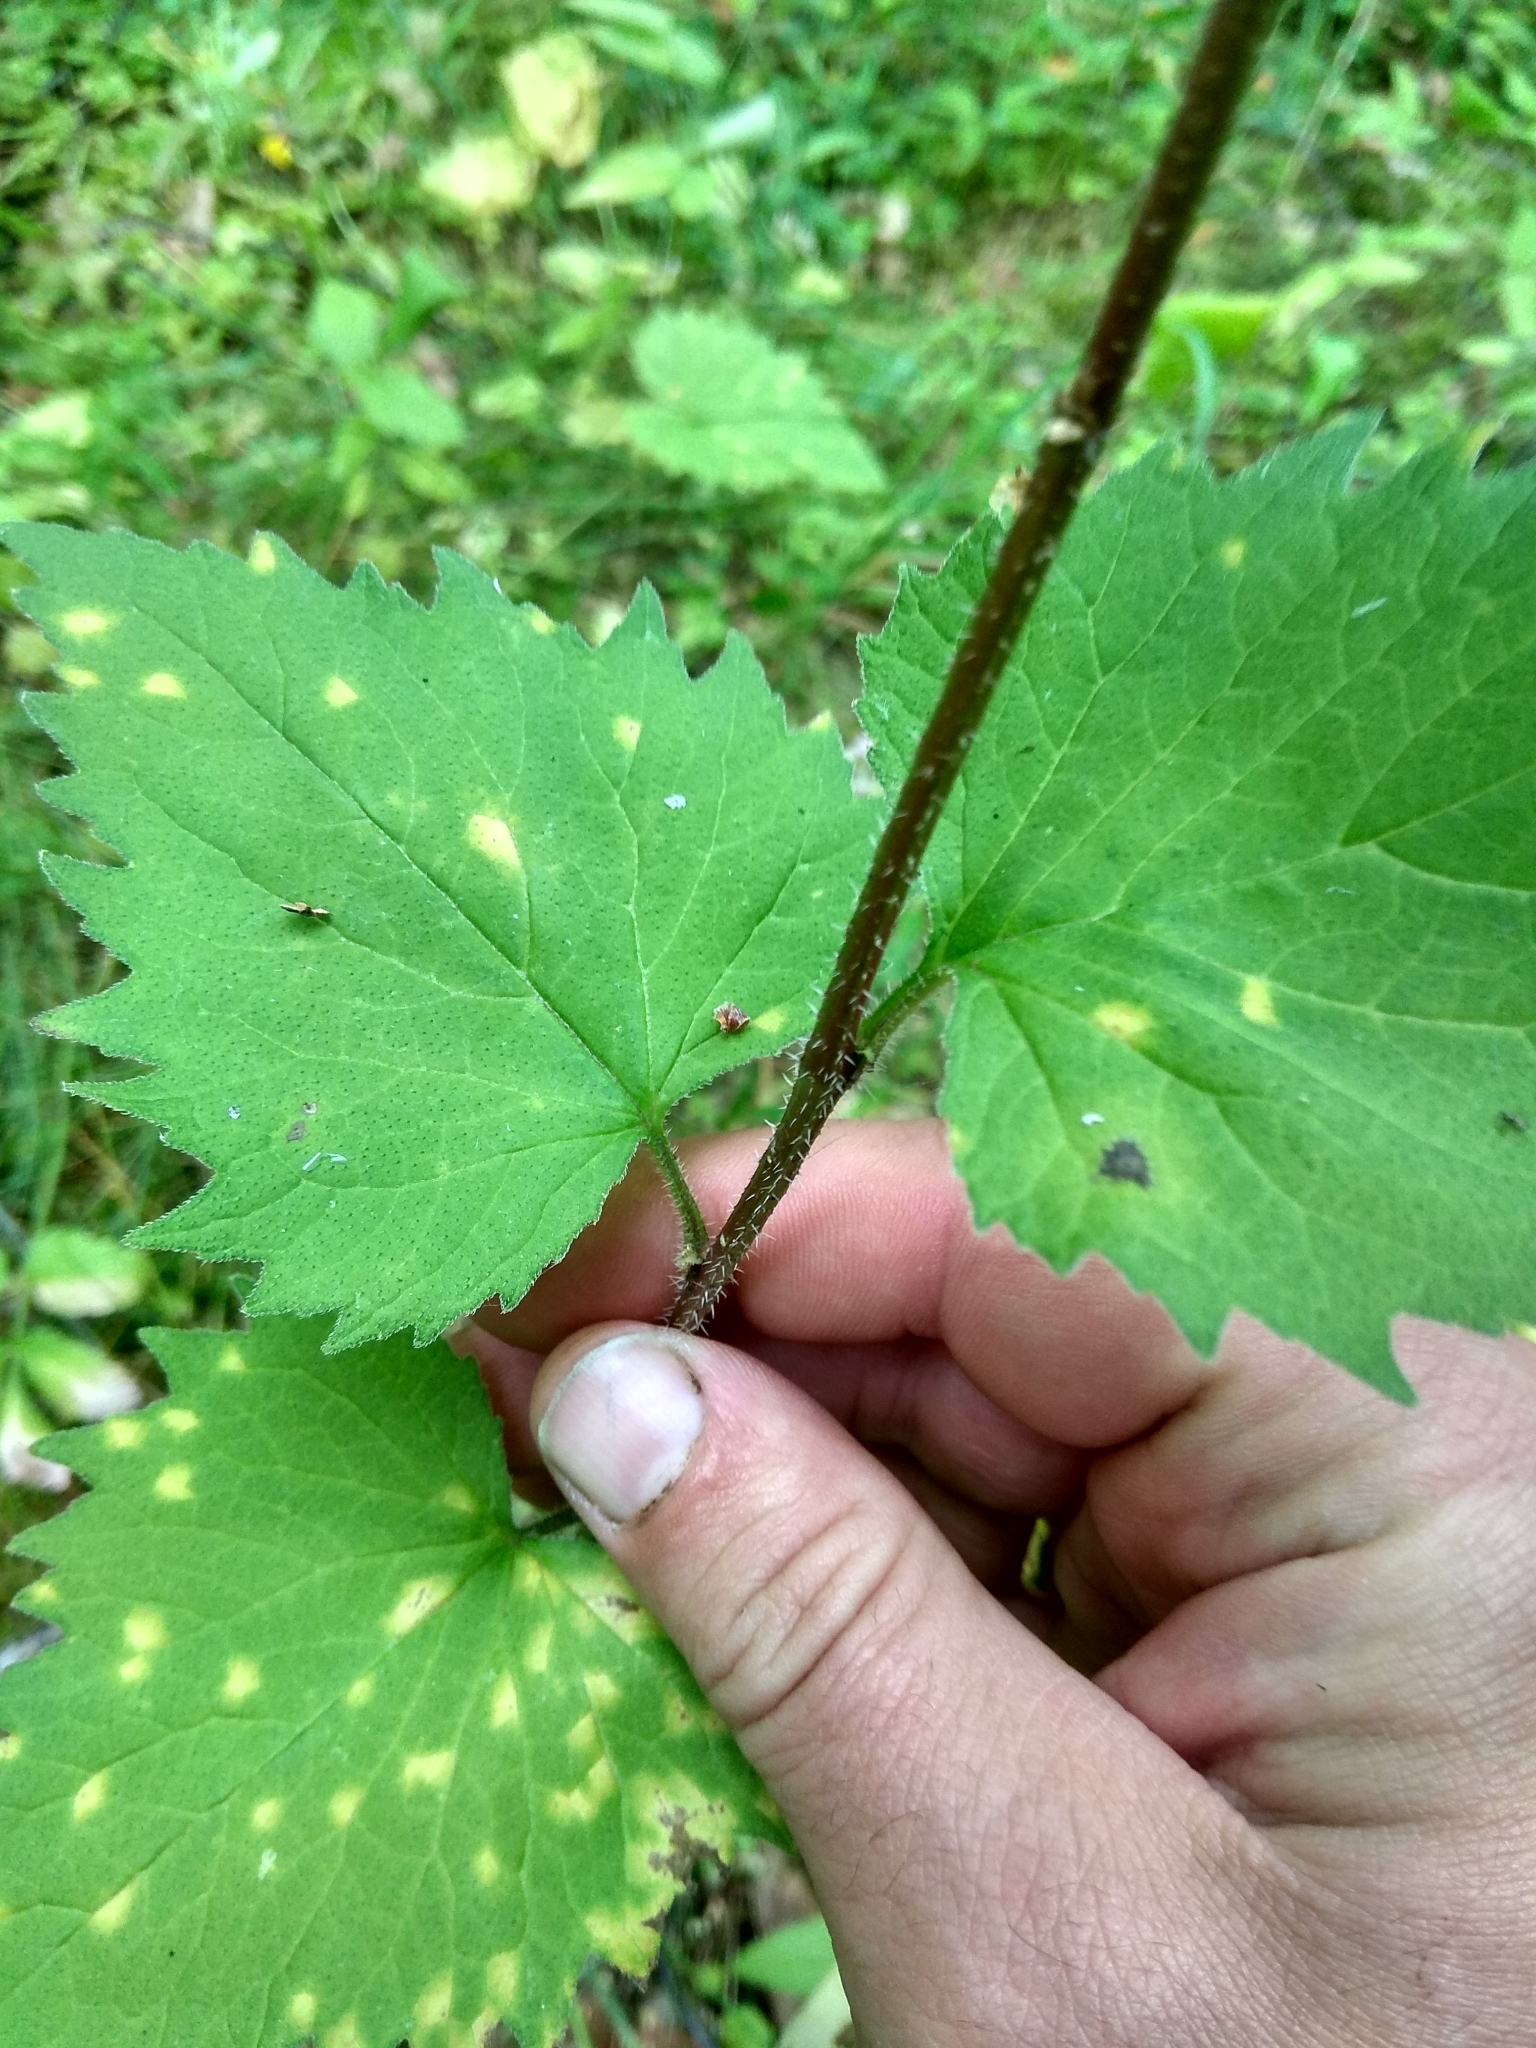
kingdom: Plantae
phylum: Tracheophyta
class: Magnoliopsida
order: Asterales
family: Campanulaceae
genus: Campanula
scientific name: Campanula trachelium
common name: Nettle-leaved bellflower
